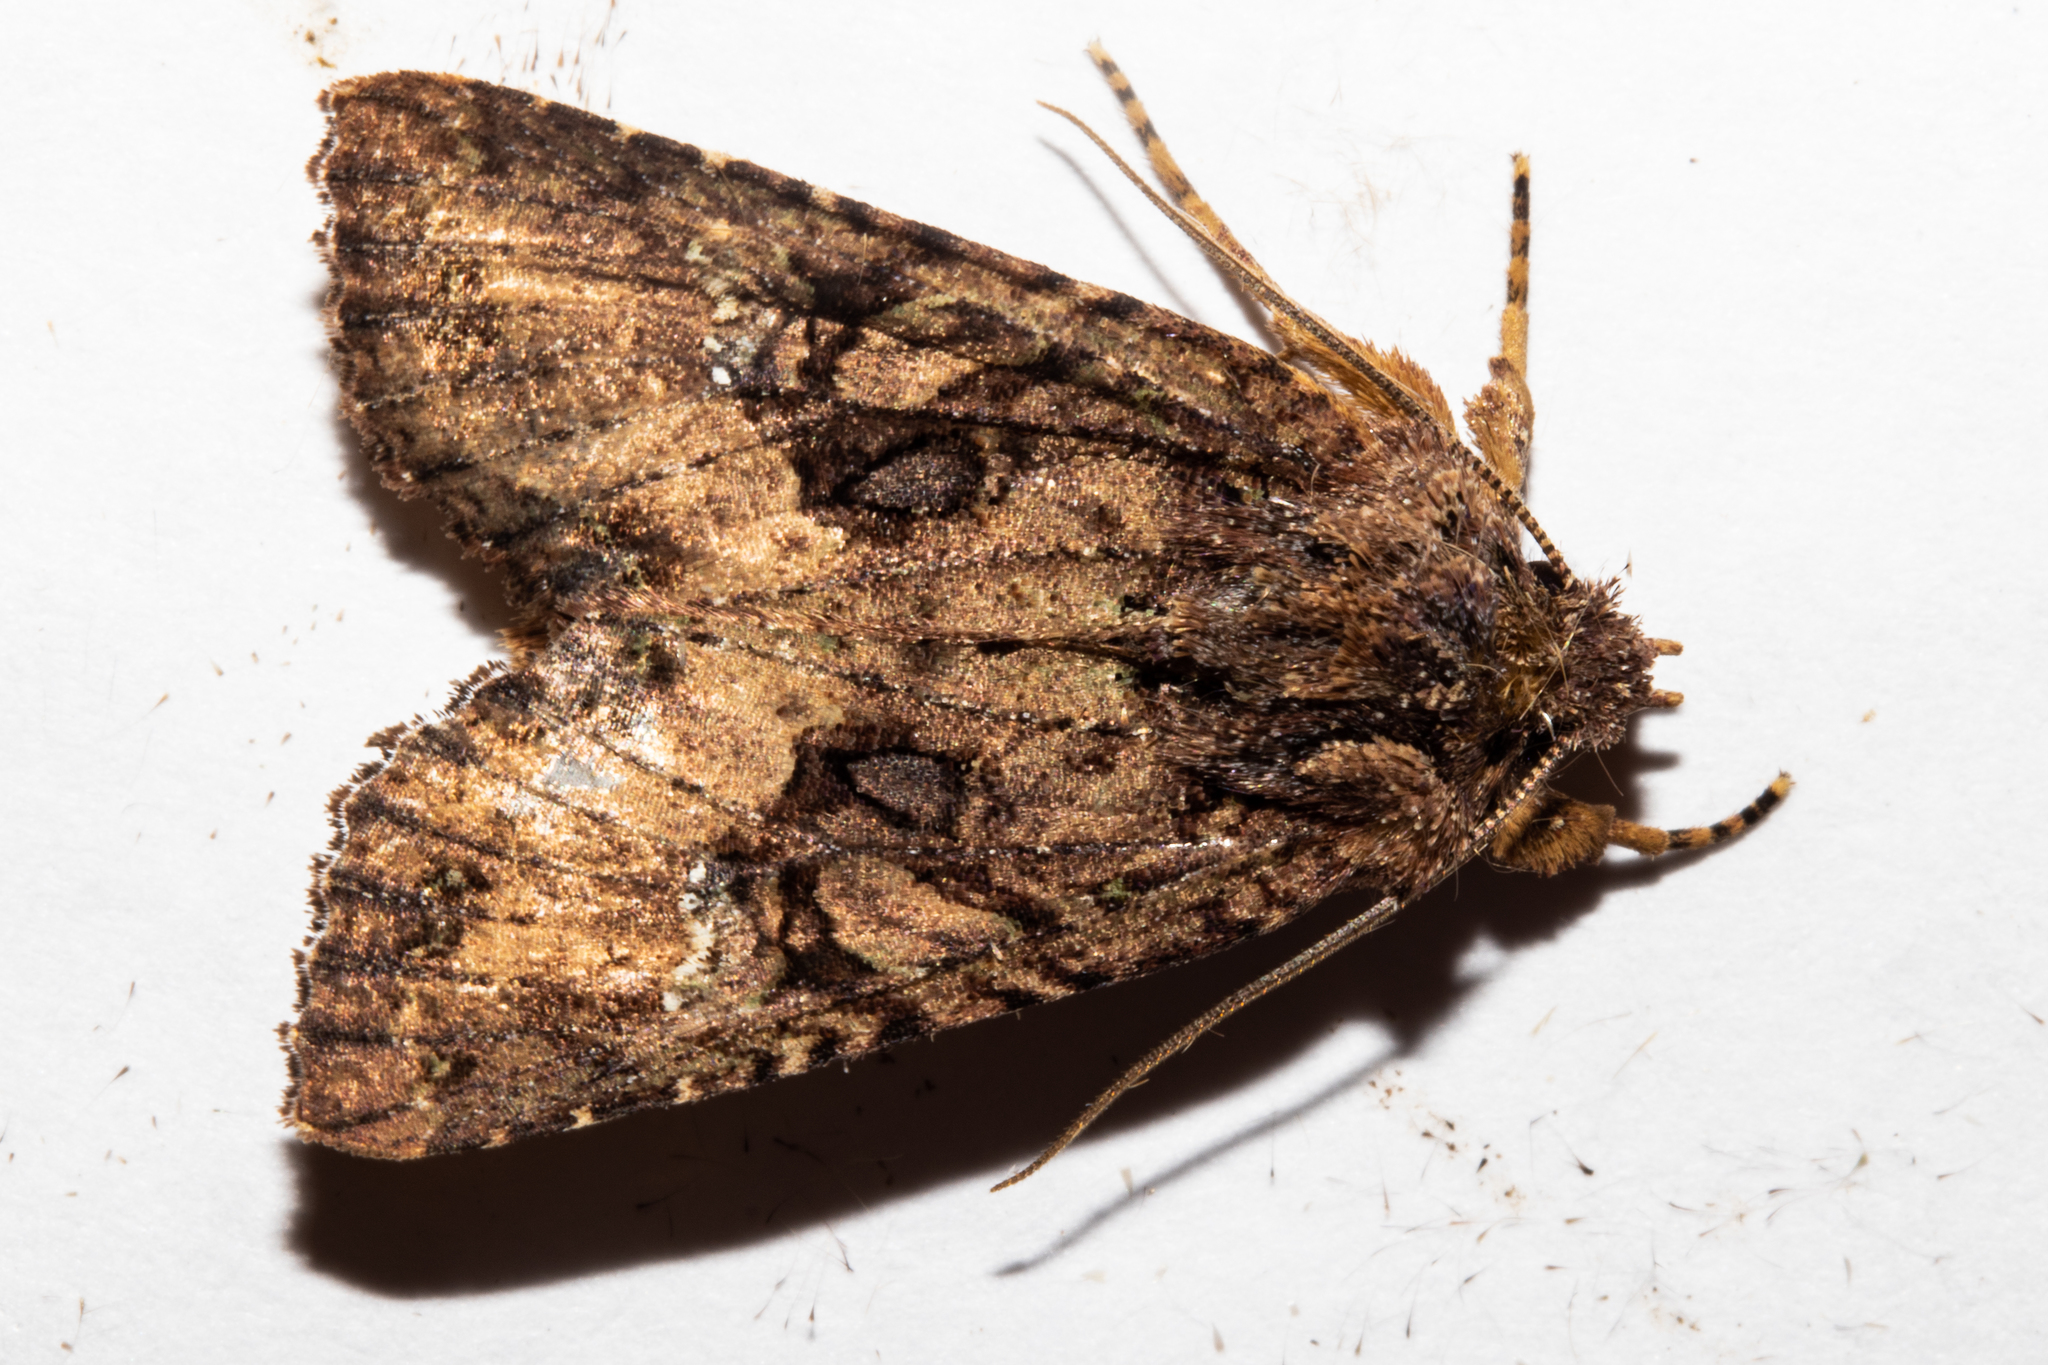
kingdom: Animalia
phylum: Arthropoda
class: Insecta
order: Lepidoptera
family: Noctuidae
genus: Meterana
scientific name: Meterana ochthistis
